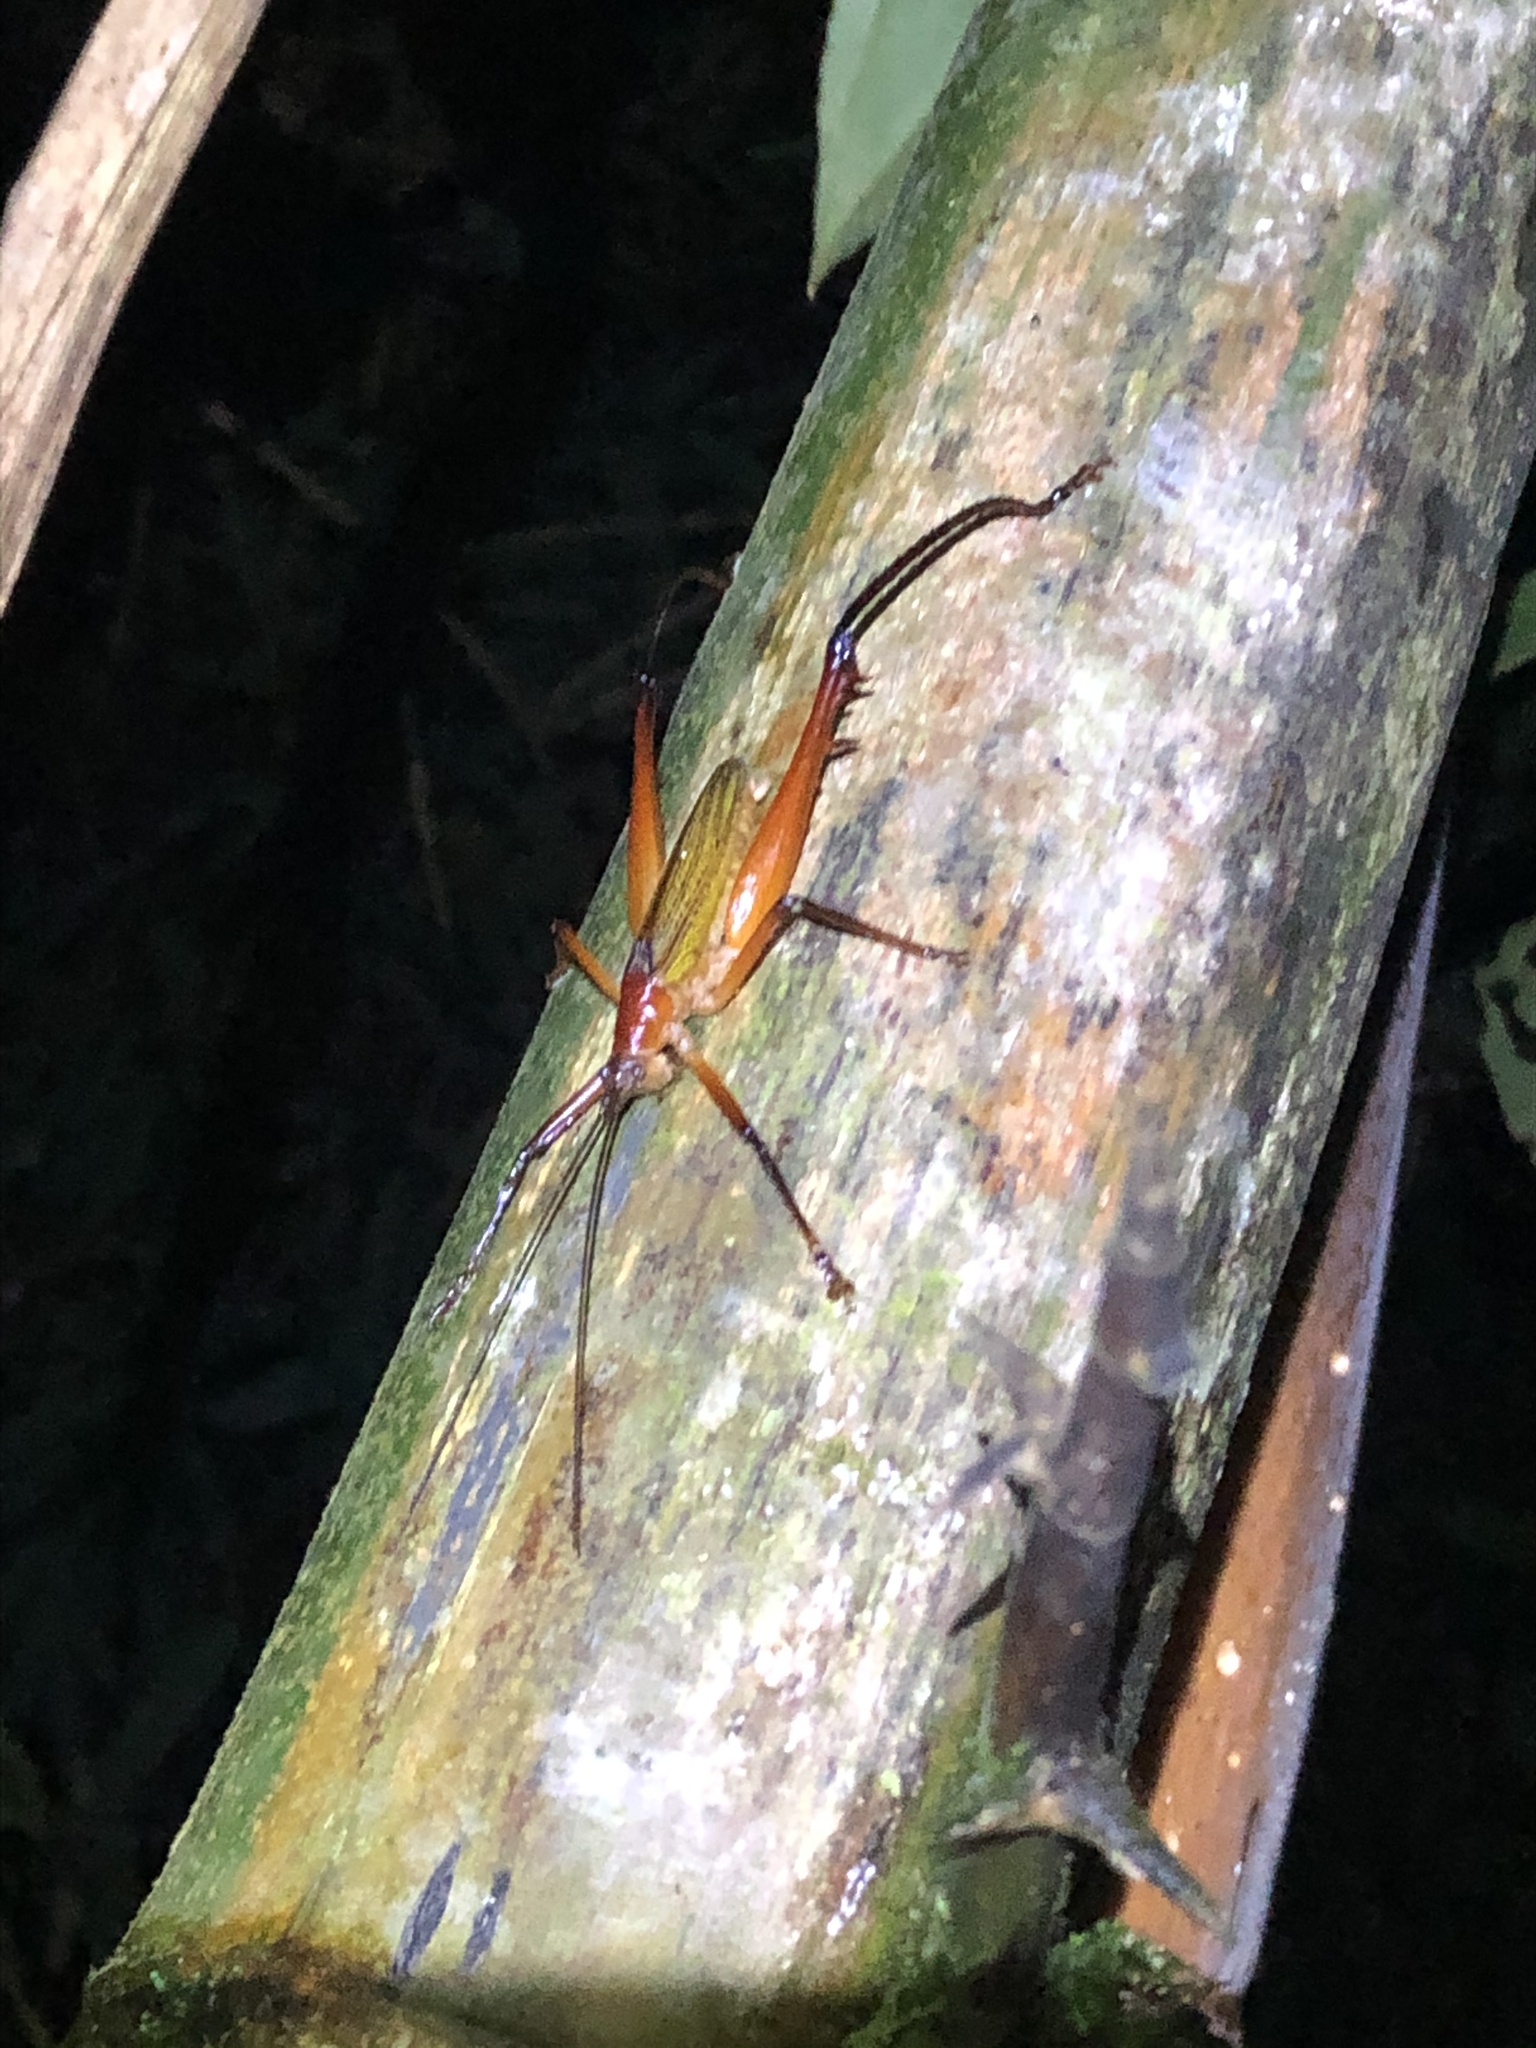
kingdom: Animalia
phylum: Arthropoda
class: Insecta
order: Orthoptera
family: Tettigoniidae
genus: Arrhenotettix
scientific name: Arrhenotettix valgus
